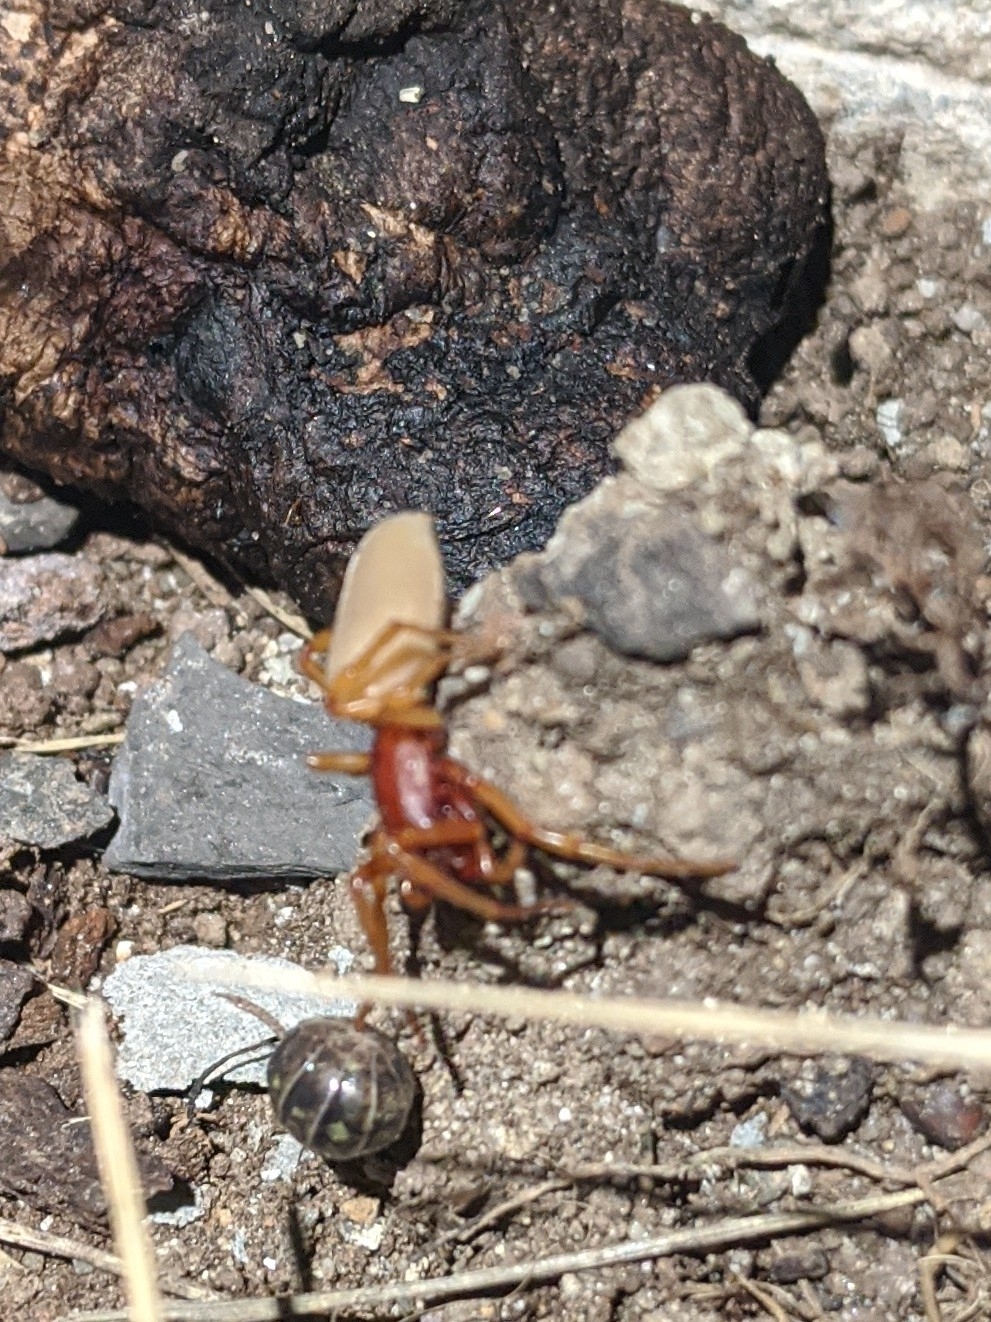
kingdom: Animalia
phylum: Arthropoda
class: Arachnida
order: Araneae
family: Dysderidae
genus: Dysdera
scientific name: Dysdera crocata
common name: Woodlouse spider
